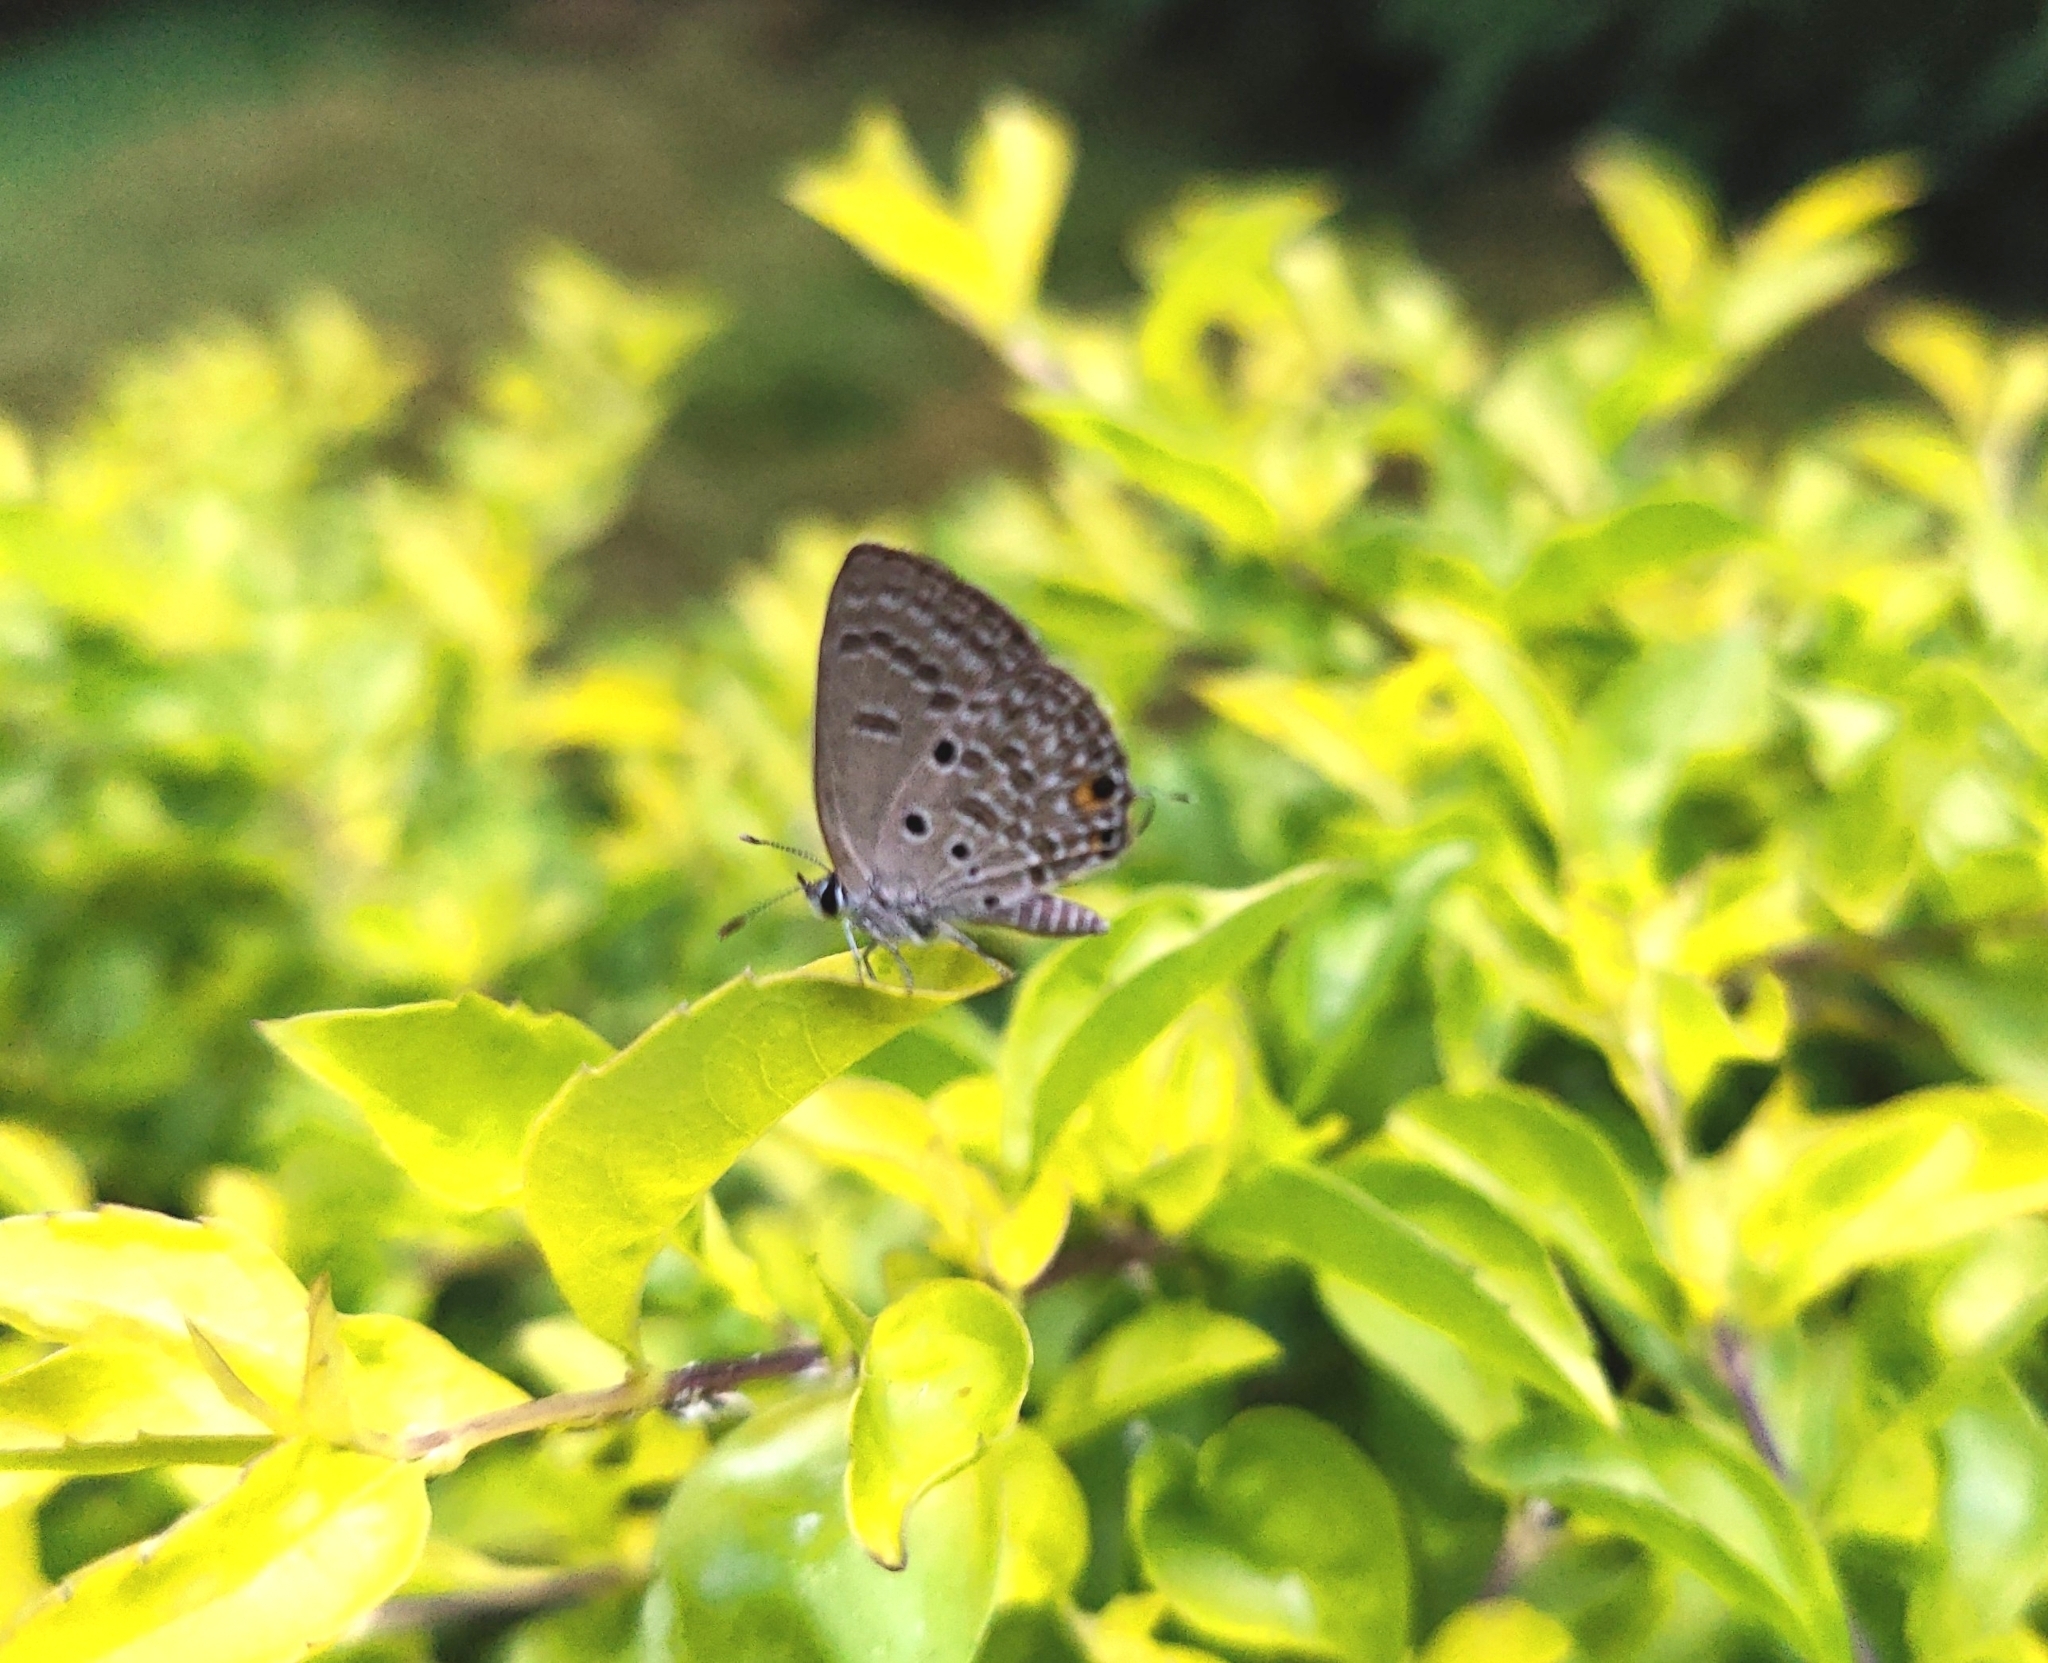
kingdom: Animalia
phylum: Arthropoda
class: Insecta
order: Lepidoptera
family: Lycaenidae
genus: Luthrodes
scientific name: Luthrodes pandava
